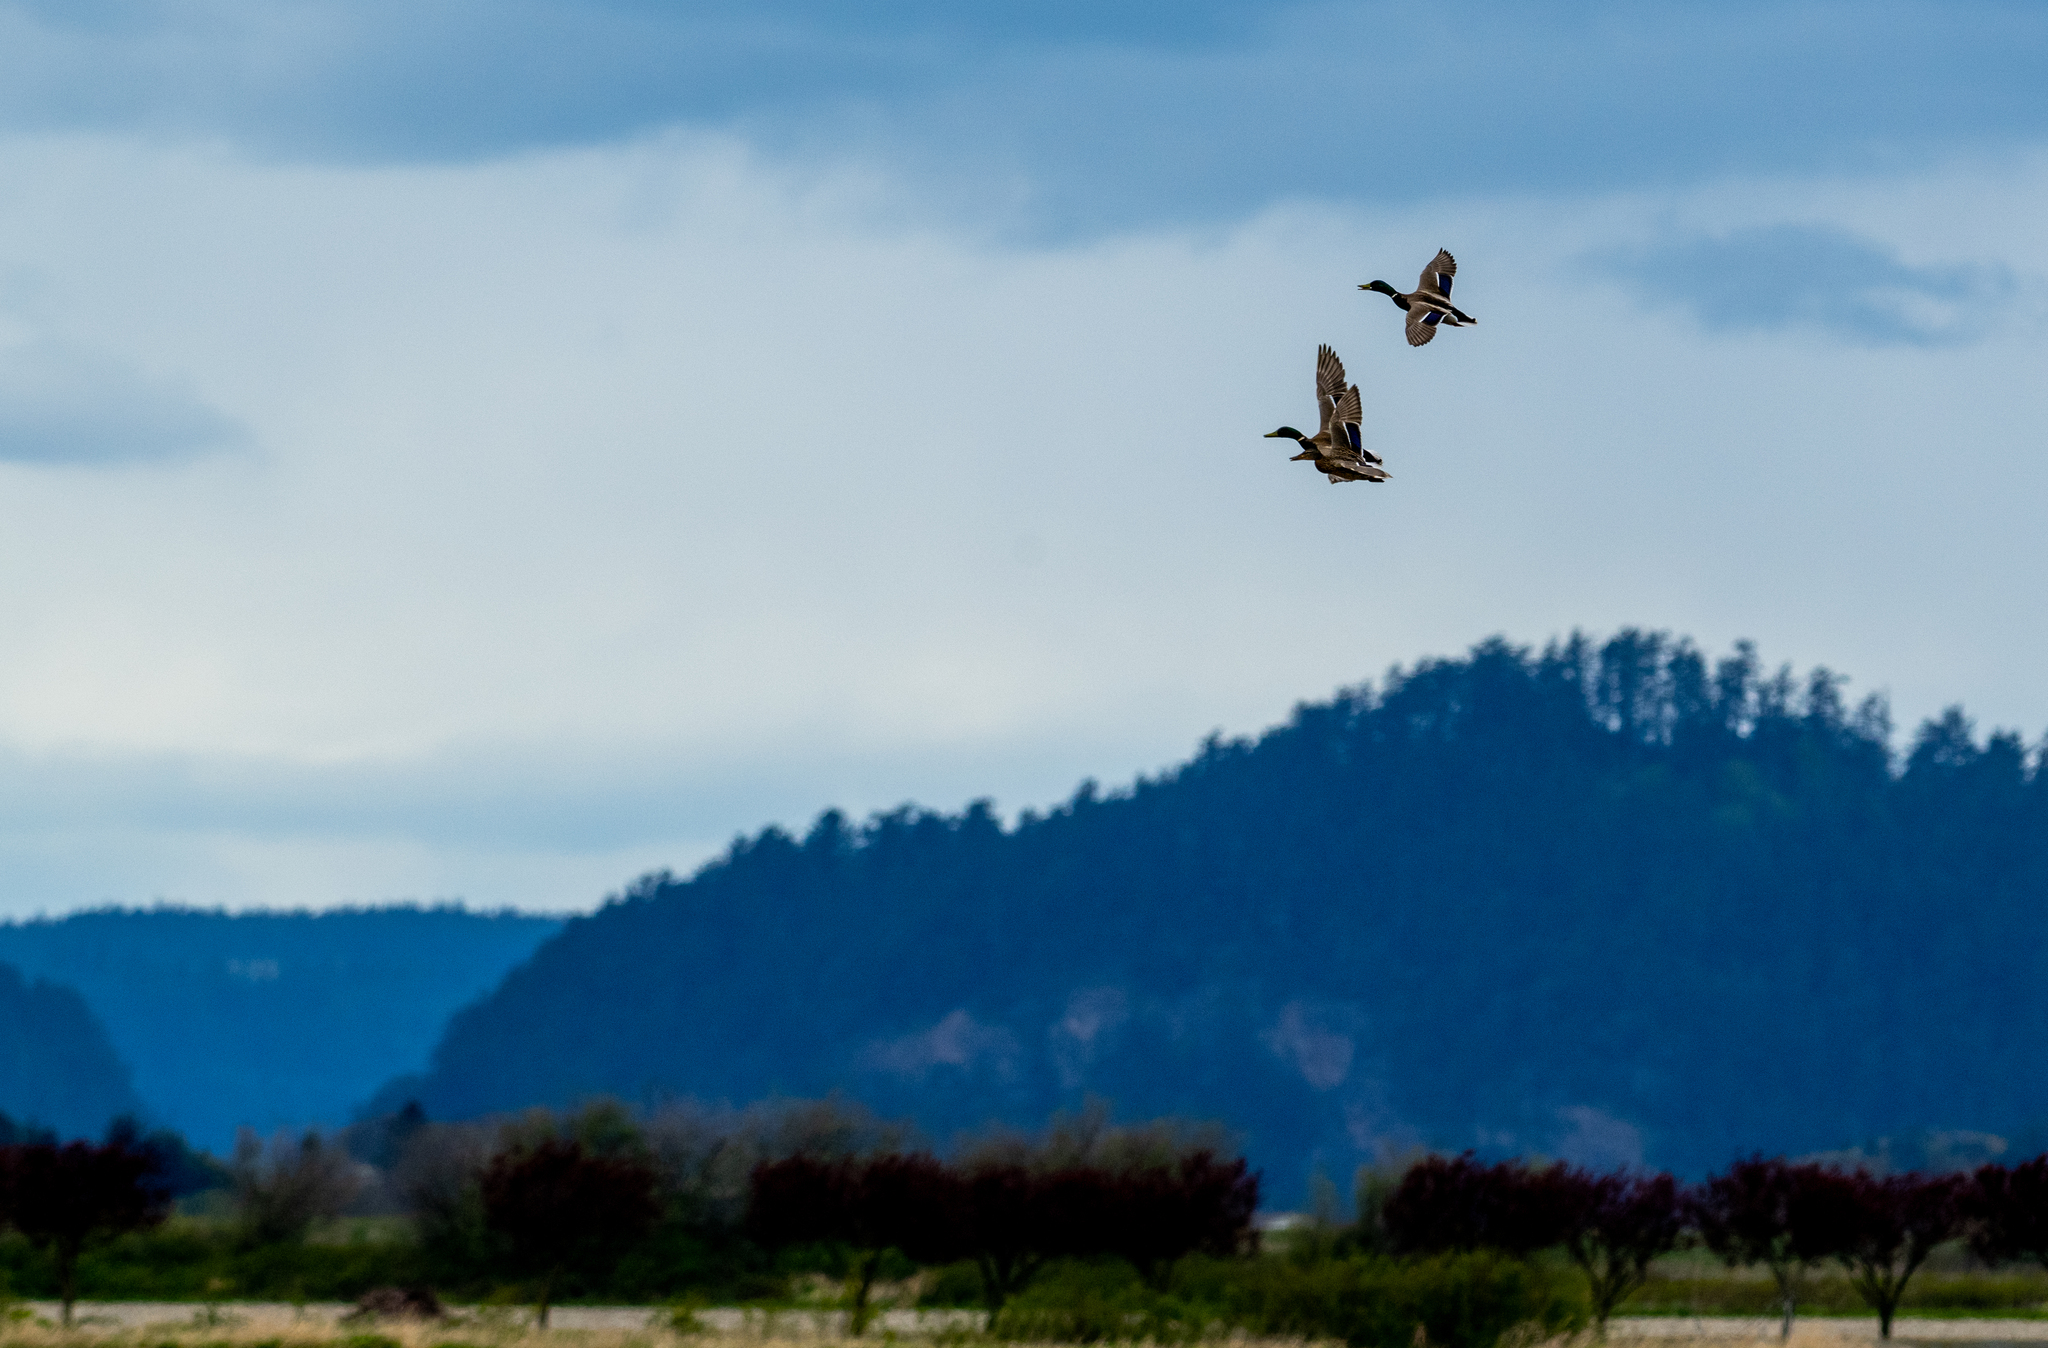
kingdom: Animalia
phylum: Chordata
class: Aves
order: Anseriformes
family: Anatidae
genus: Anas
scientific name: Anas platyrhynchos
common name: Mallard
